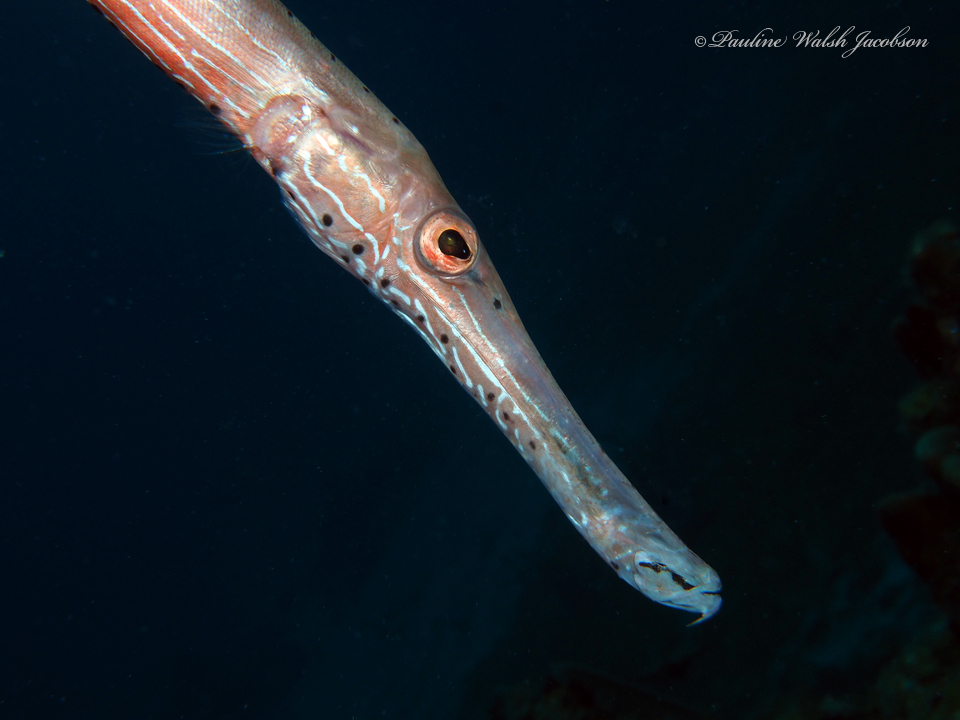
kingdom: Animalia
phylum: Chordata
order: Syngnathiformes
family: Aulostomidae
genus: Aulostomus
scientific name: Aulostomus maculatus
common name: West atlantic trumpetfish
